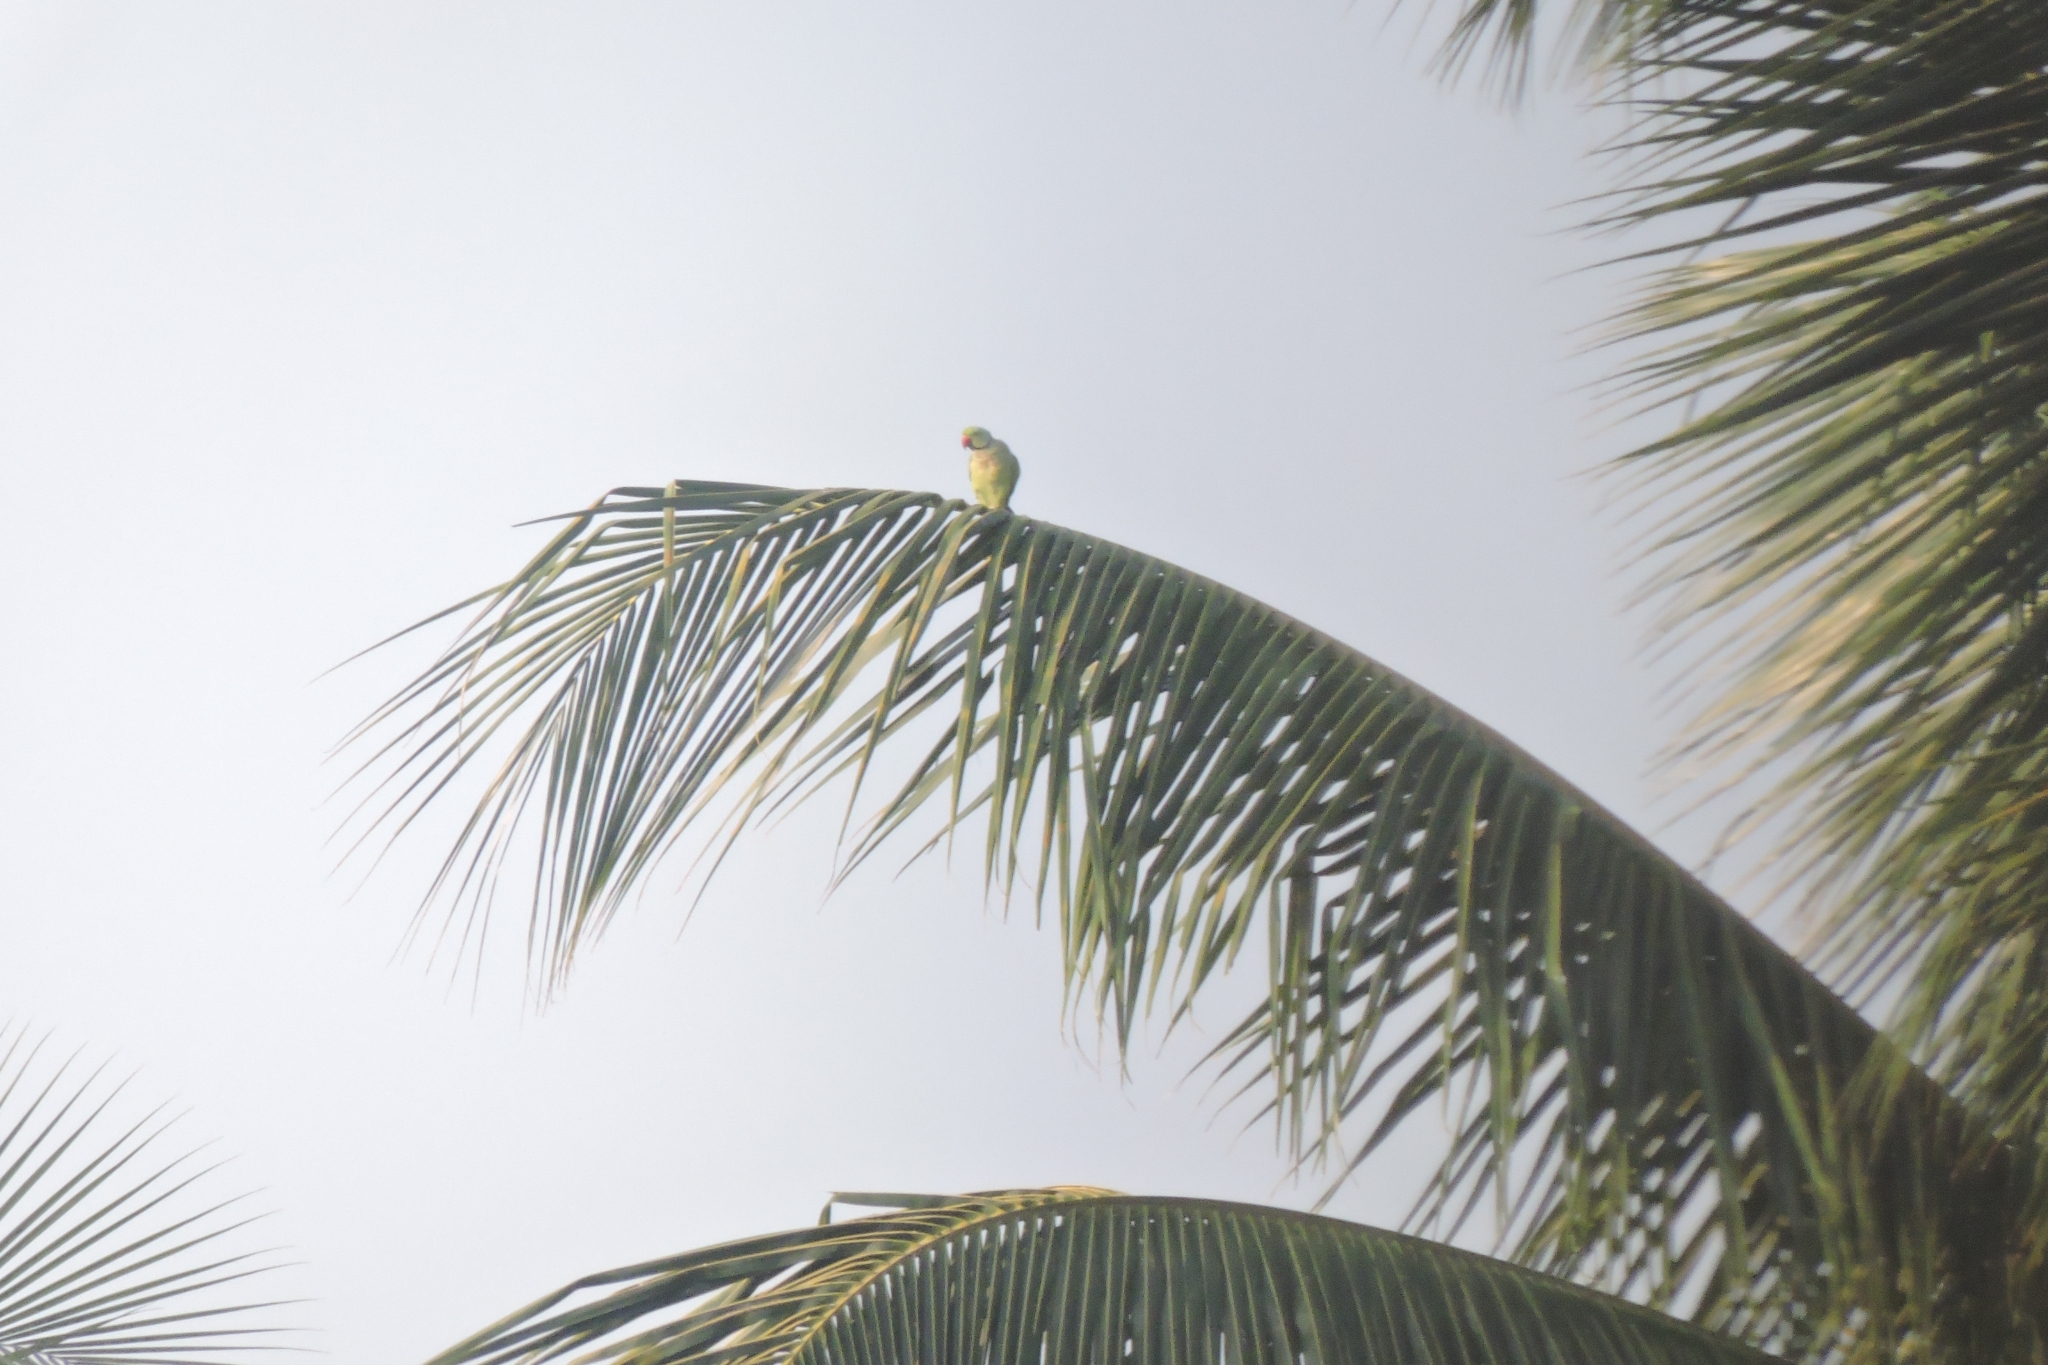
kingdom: Animalia
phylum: Chordata
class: Aves
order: Psittaciformes
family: Psittacidae
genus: Psittacula
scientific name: Psittacula krameri
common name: Rose-ringed parakeet
